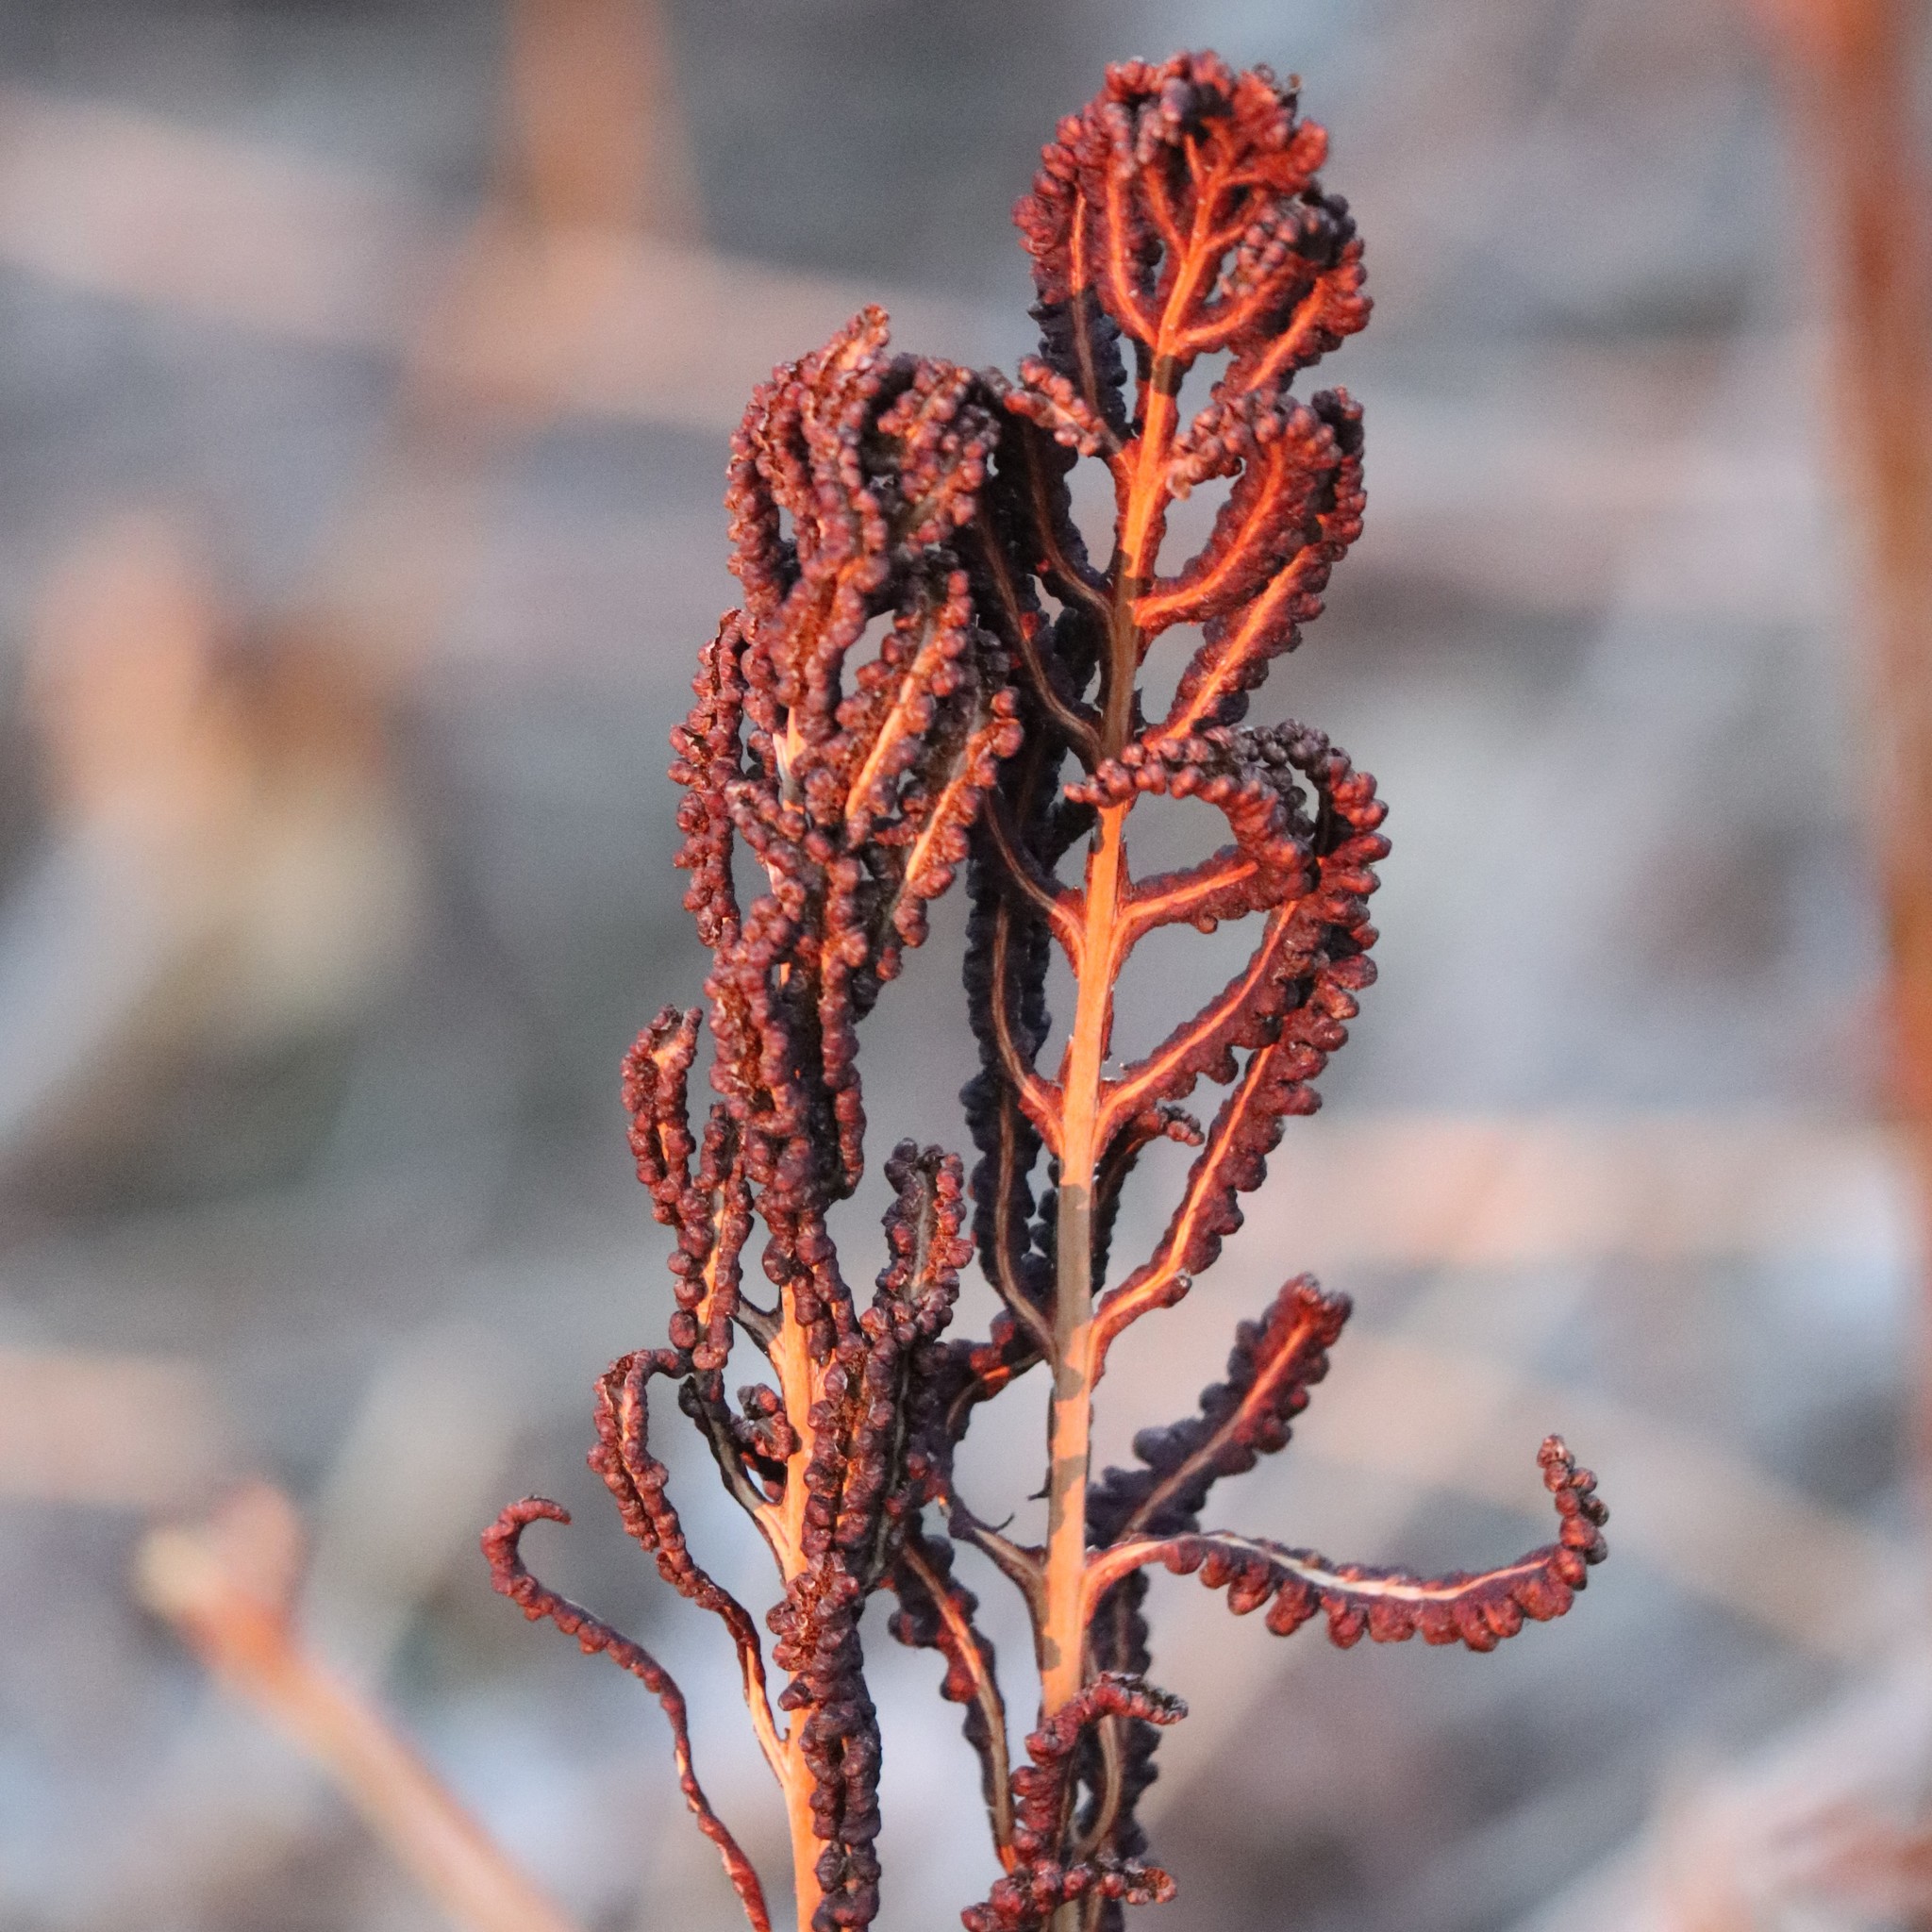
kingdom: Plantae
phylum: Tracheophyta
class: Polypodiopsida
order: Polypodiales
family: Onocleaceae
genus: Onoclea
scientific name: Onoclea sensibilis
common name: Sensitive fern
